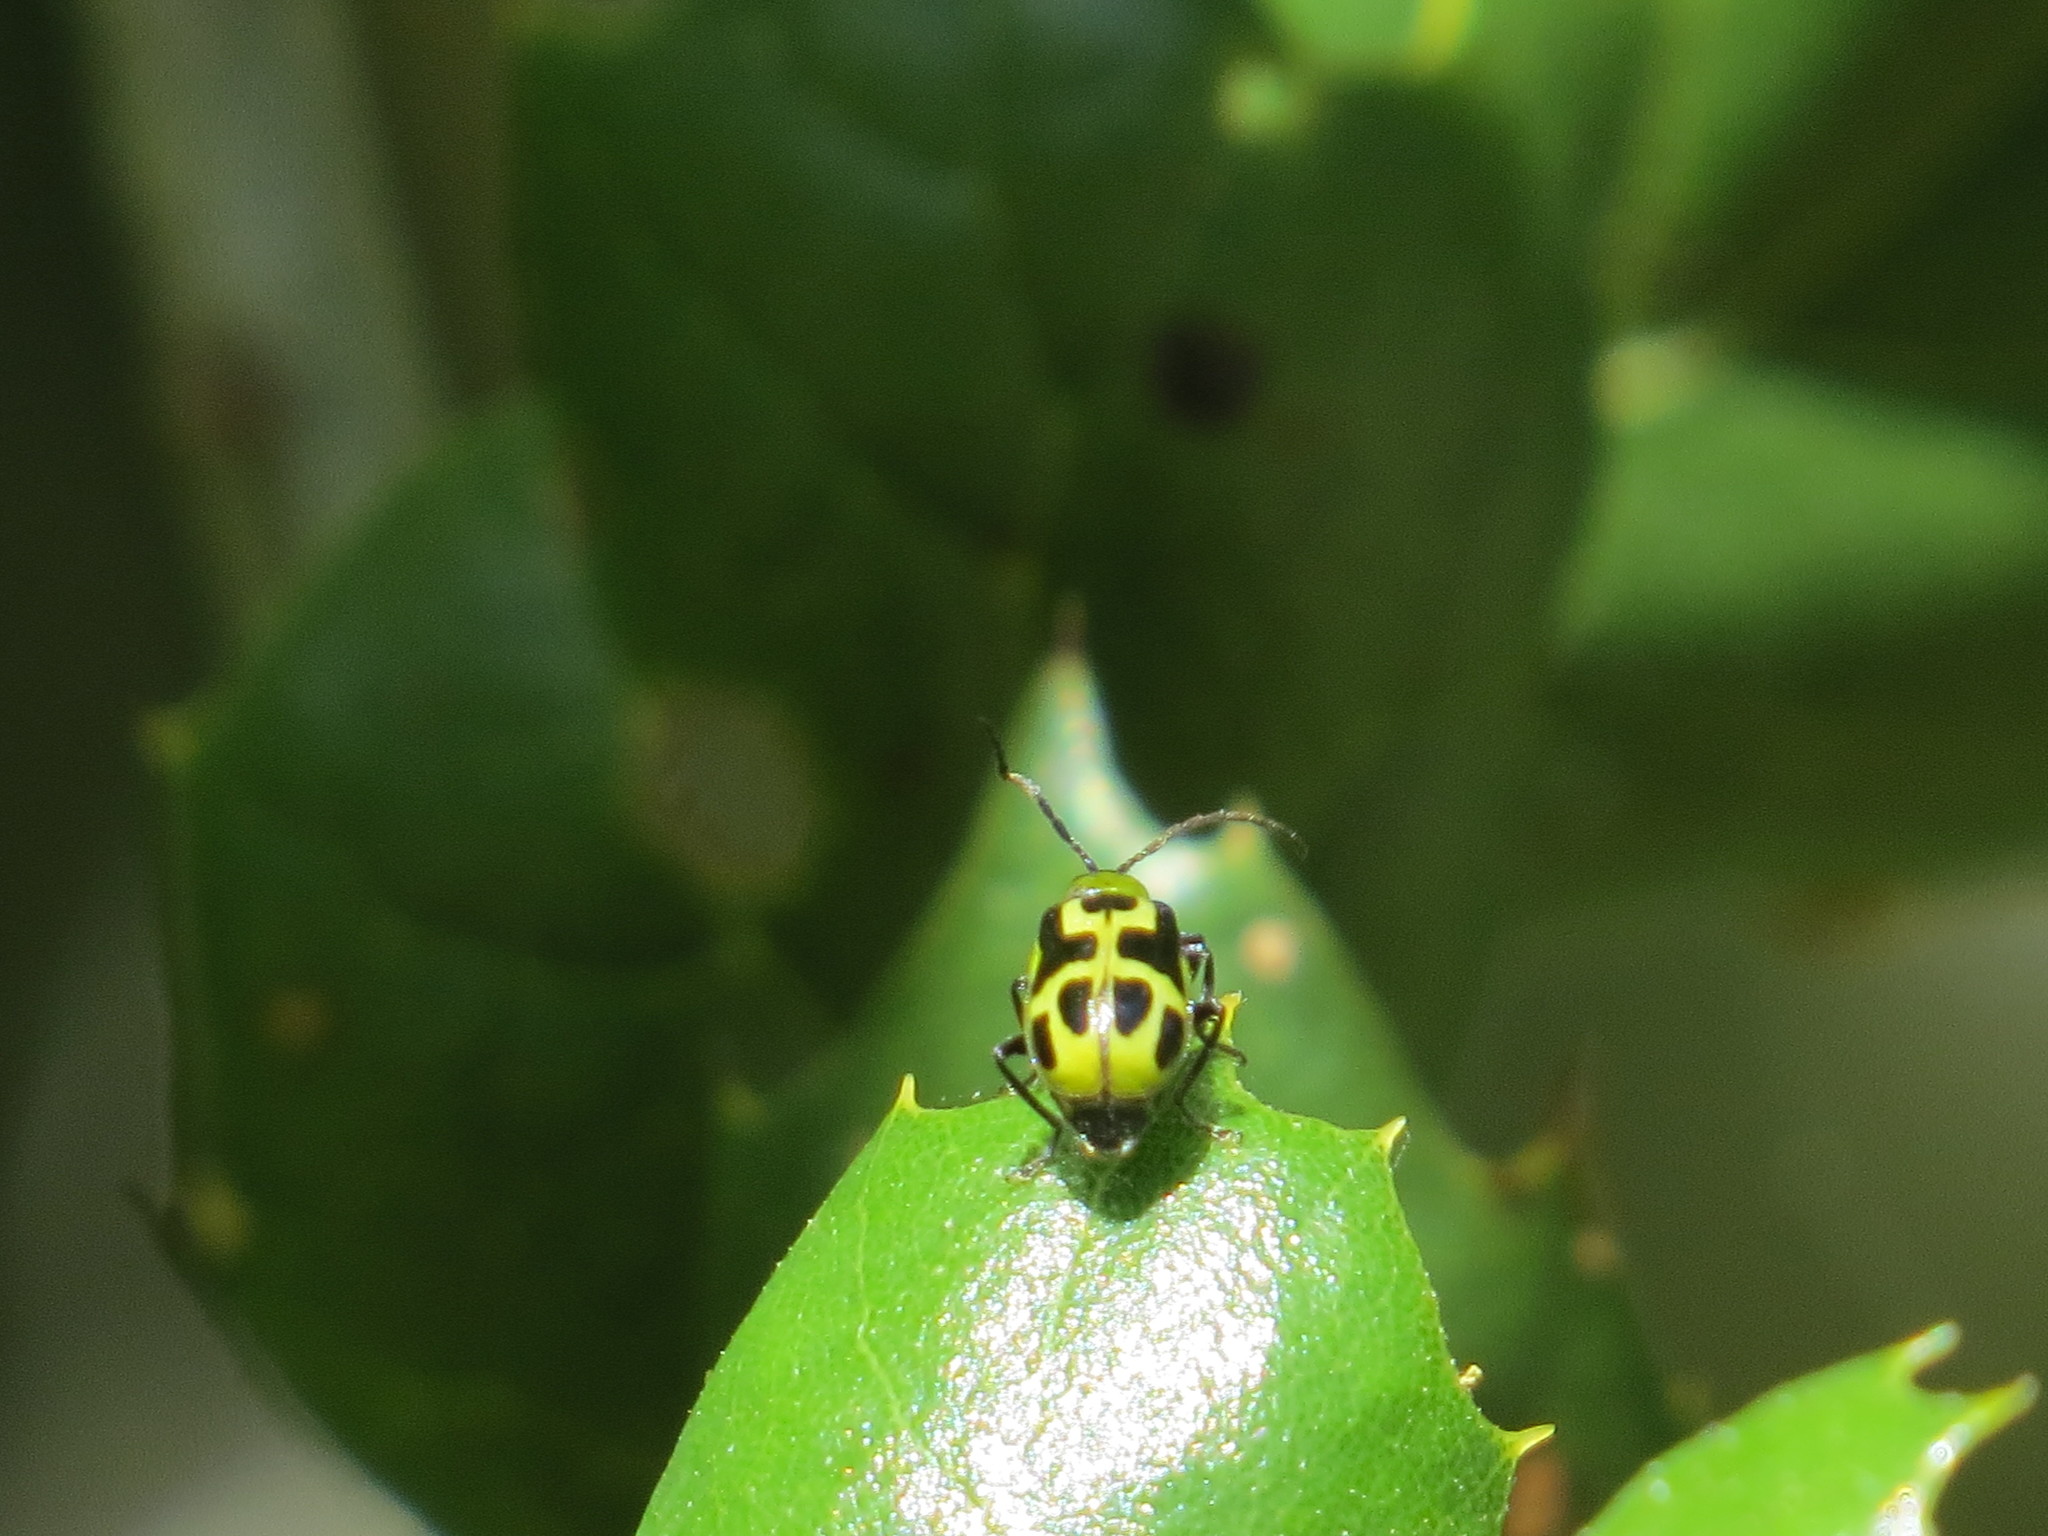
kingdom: Animalia
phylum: Arthropoda
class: Insecta
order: Coleoptera
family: Chrysomelidae
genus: Diabrotica
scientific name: Diabrotica undecimpunctata
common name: Spotted cucumber beetle
